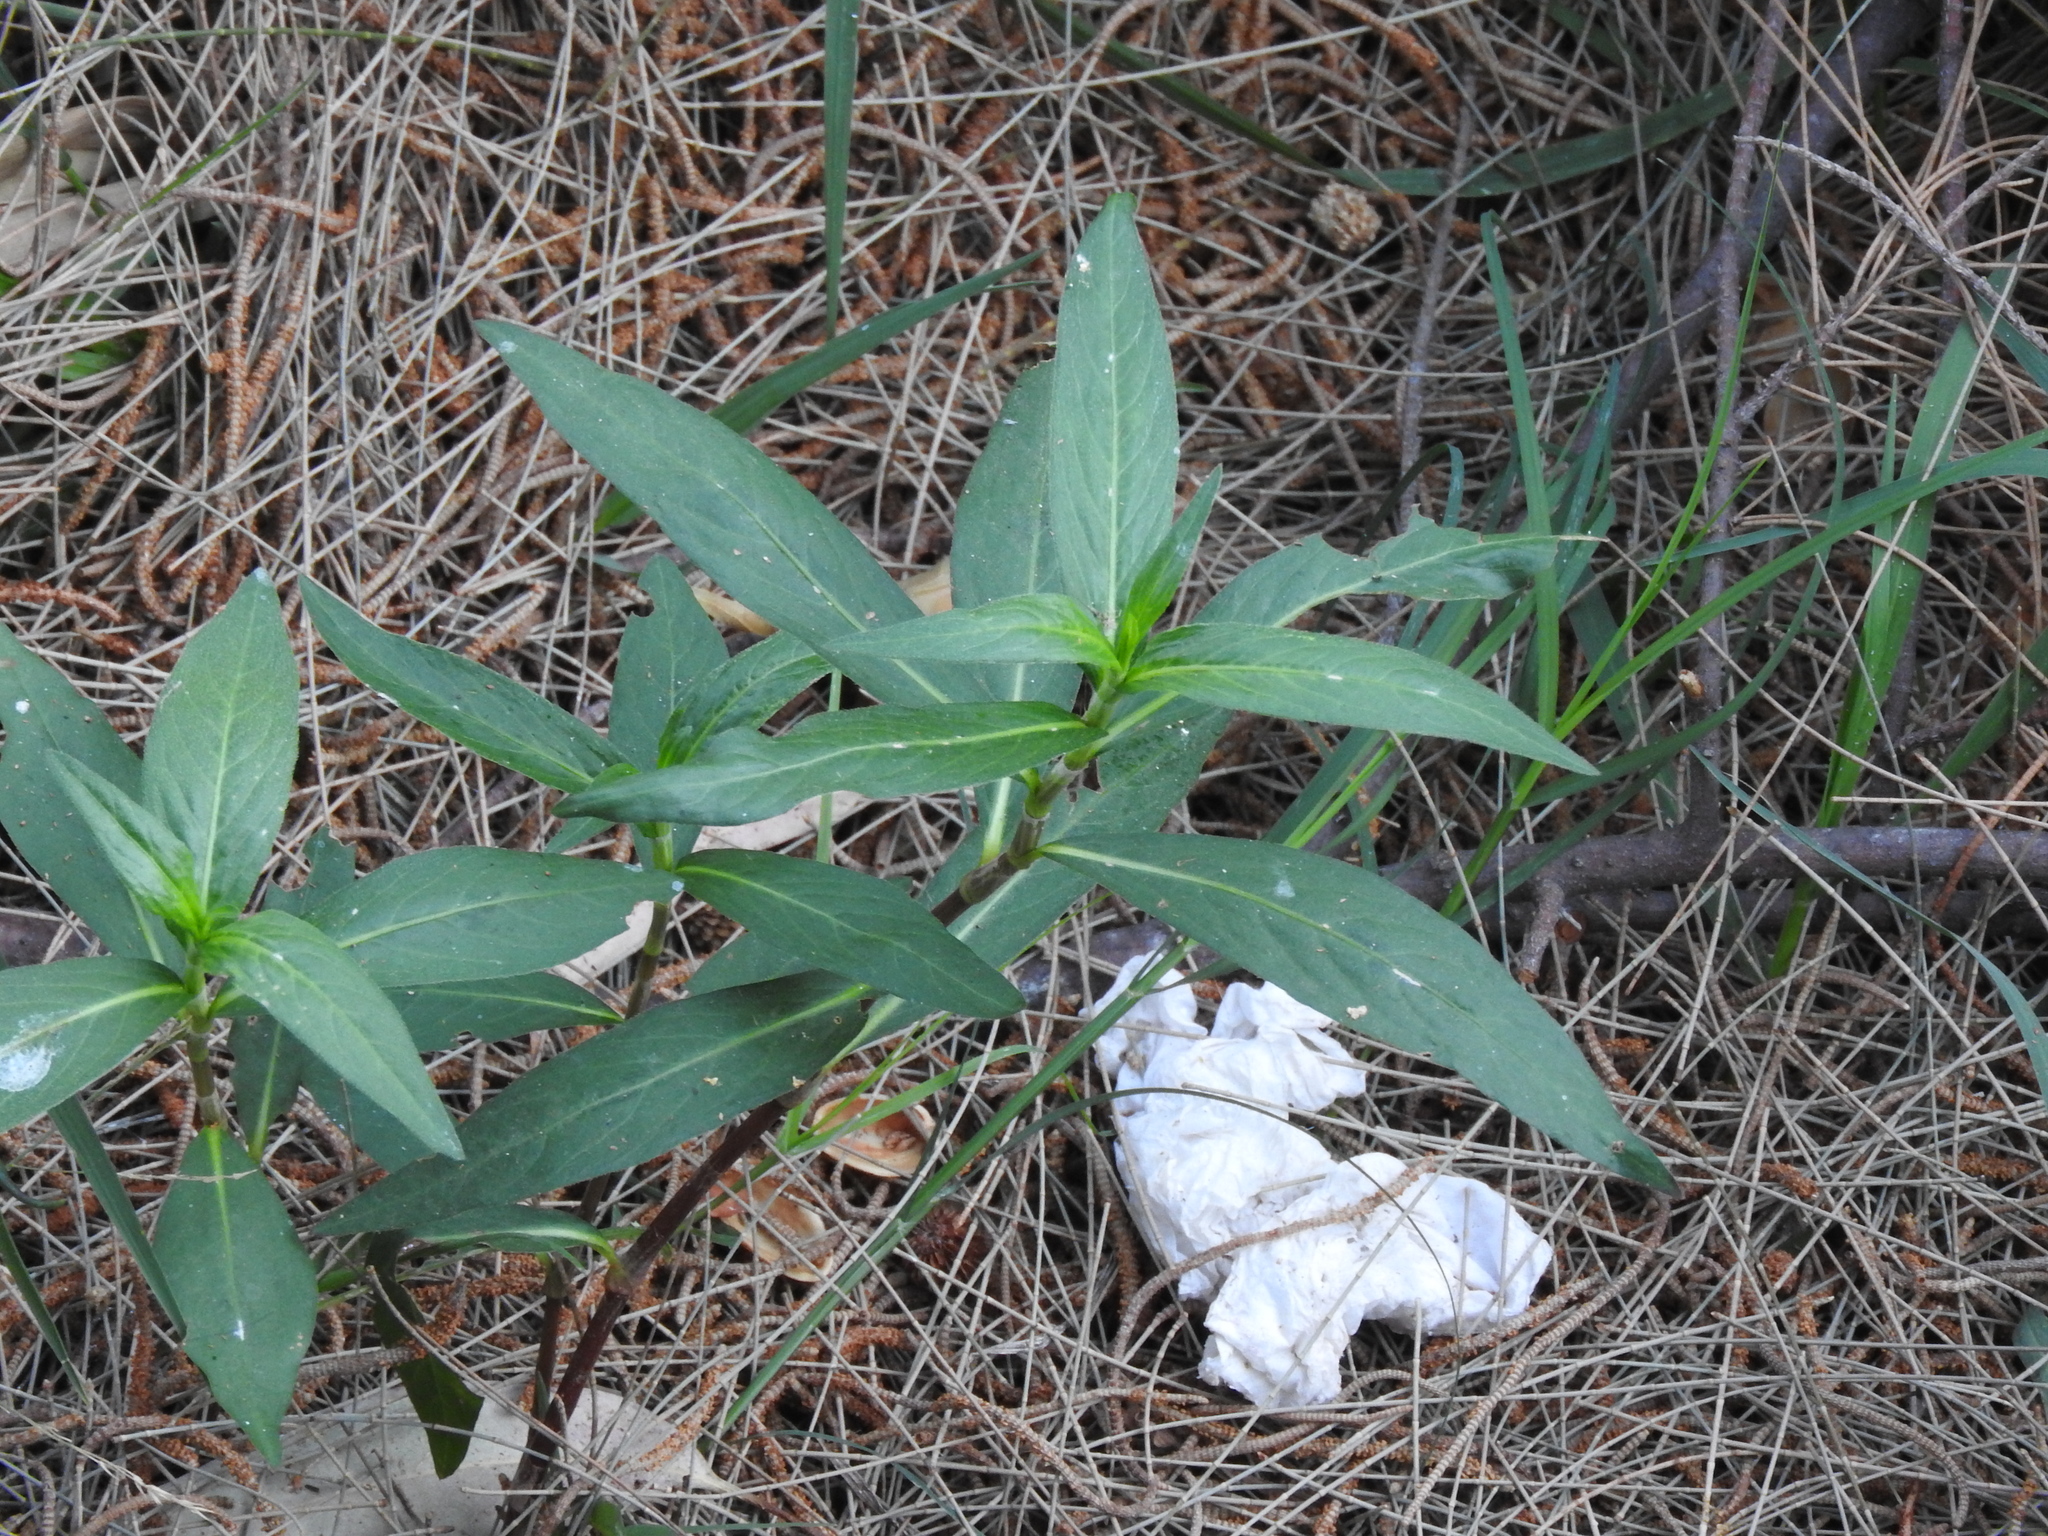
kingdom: Plantae
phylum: Tracheophyta
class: Magnoliopsida
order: Gentianales
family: Apocynaceae
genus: Asclepias
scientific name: Asclepias curassavica
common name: Bloodflower
